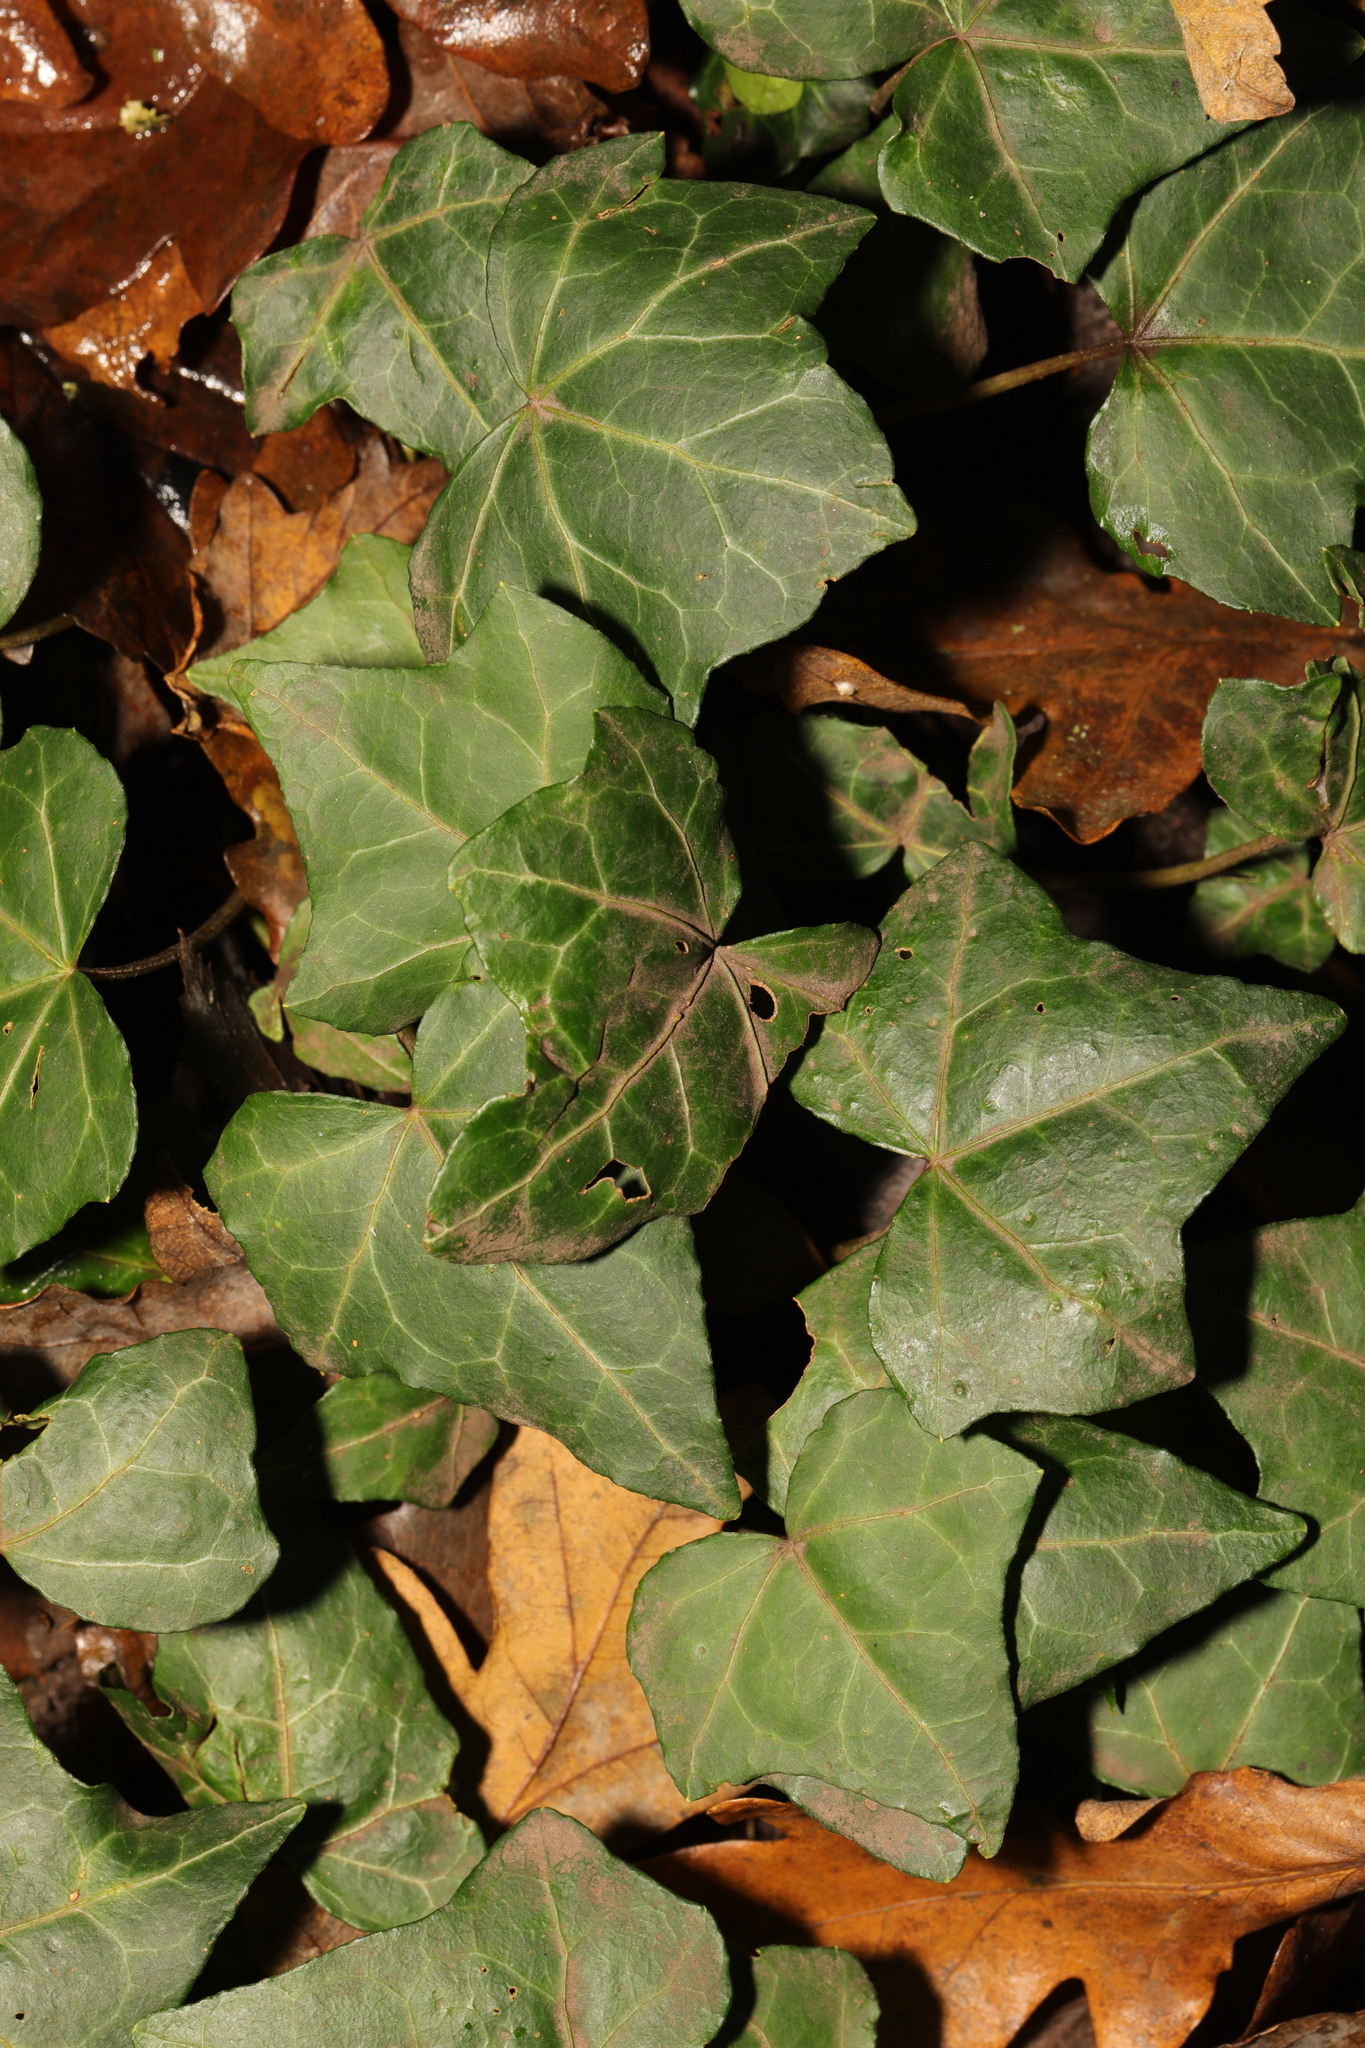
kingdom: Plantae
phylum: Tracheophyta
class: Magnoliopsida
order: Apiales
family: Araliaceae
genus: Hedera
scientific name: Hedera helix
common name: Ivy
